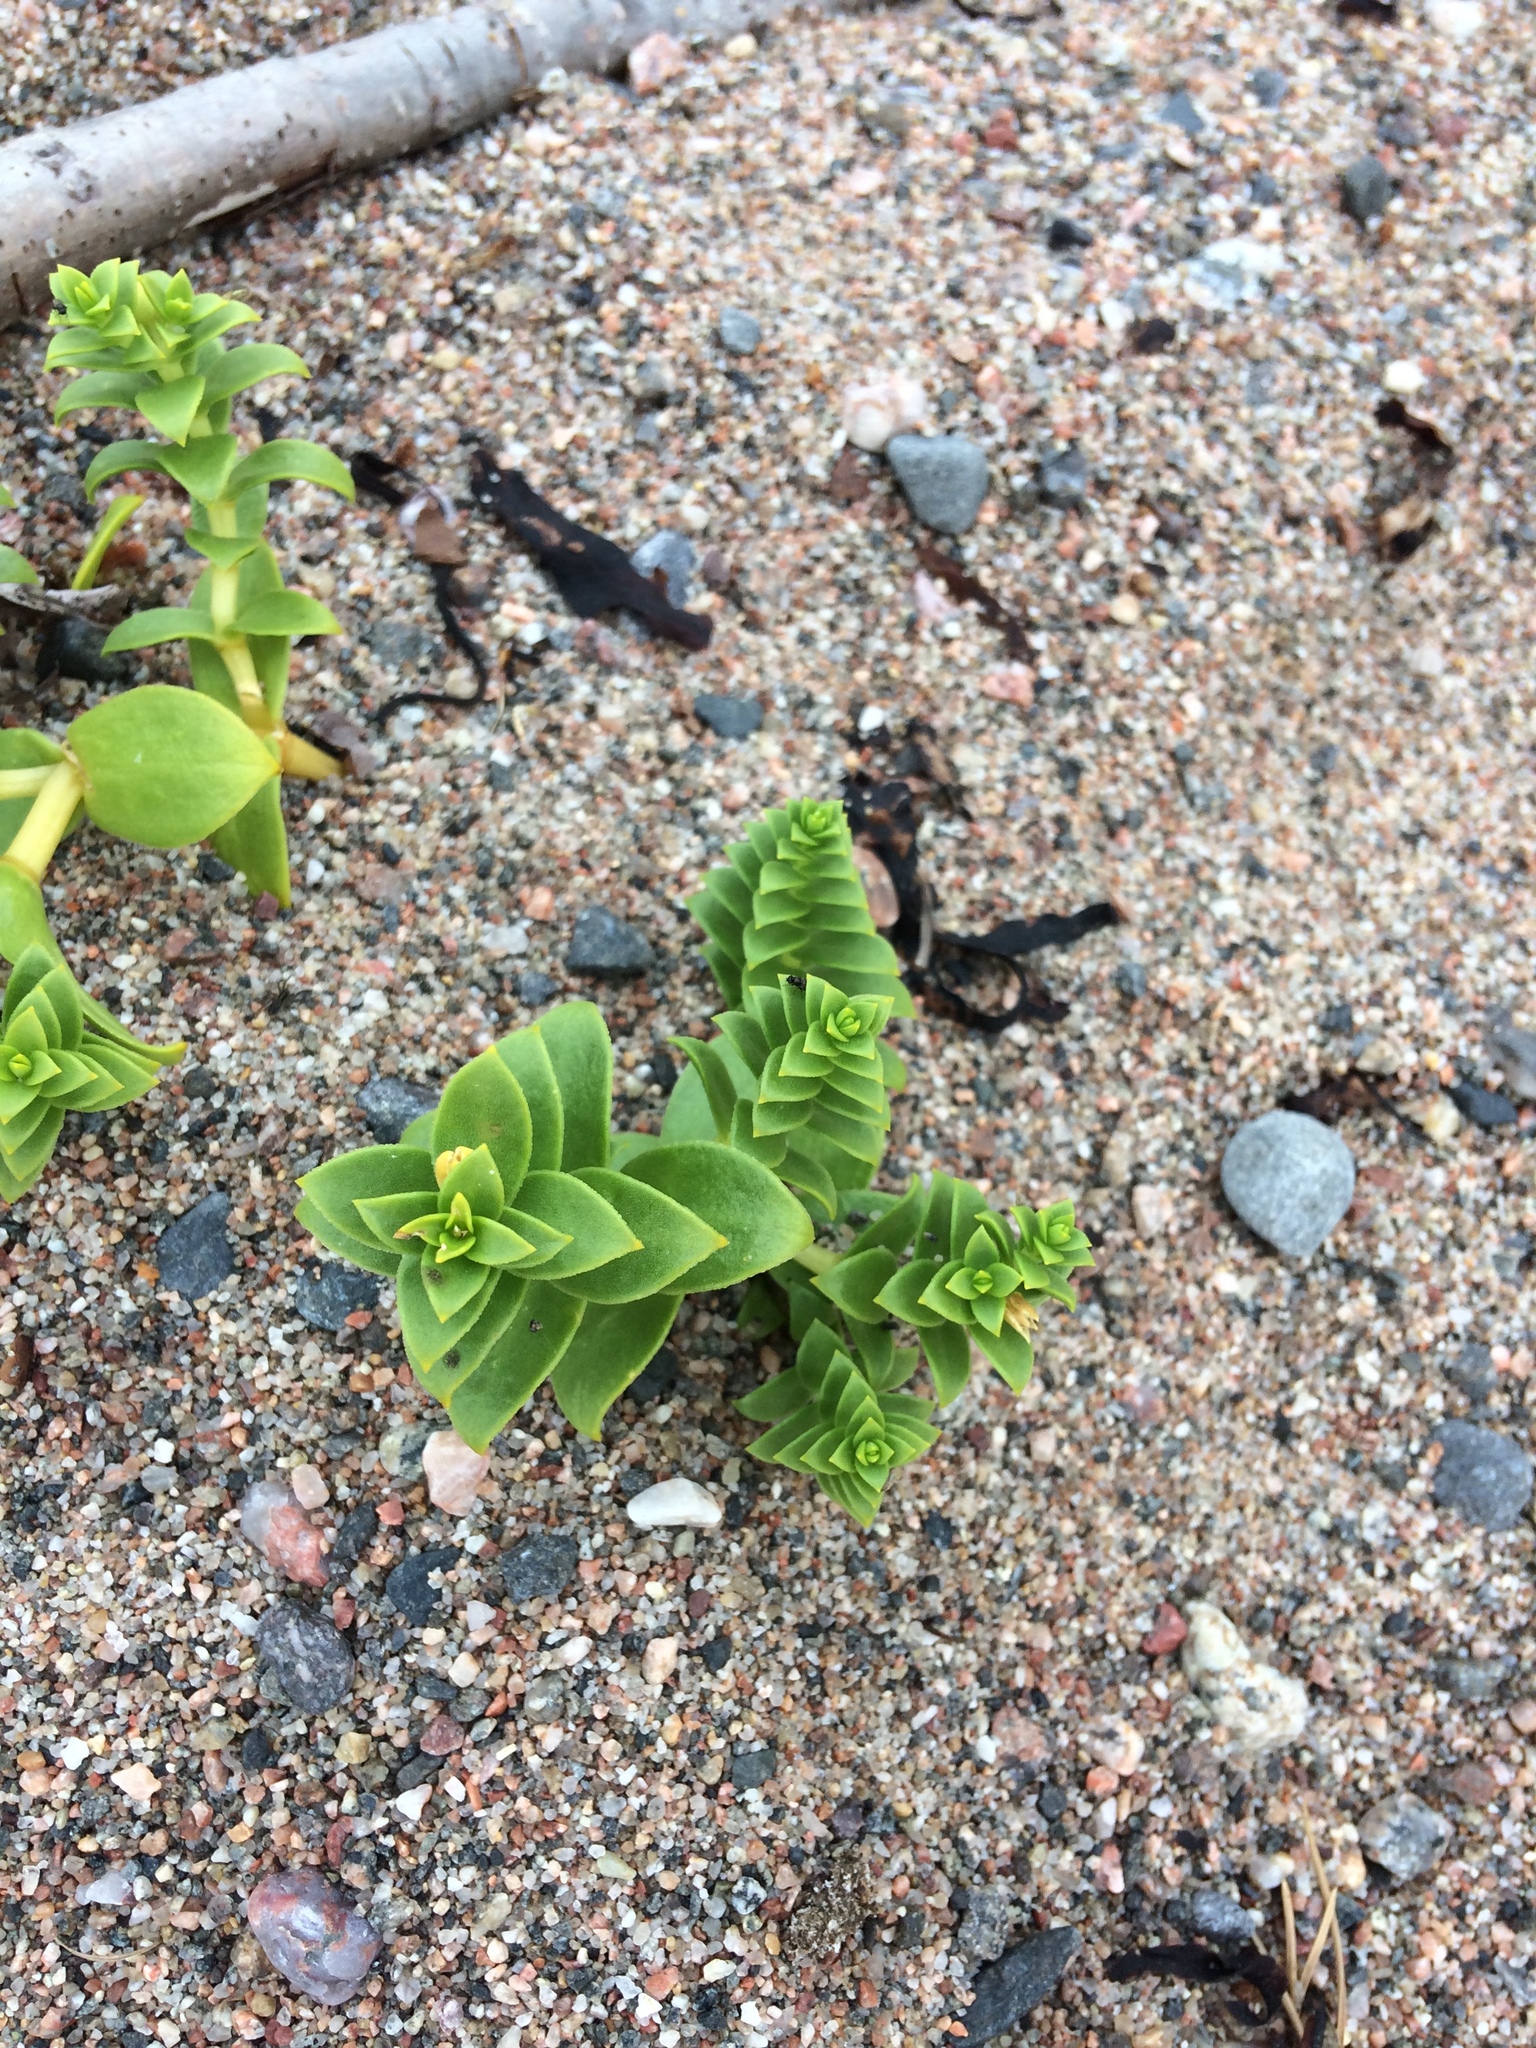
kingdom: Plantae
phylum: Tracheophyta
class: Magnoliopsida
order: Caryophyllales
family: Caryophyllaceae
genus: Honckenya
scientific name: Honckenya peploides
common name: Sea sandwort
